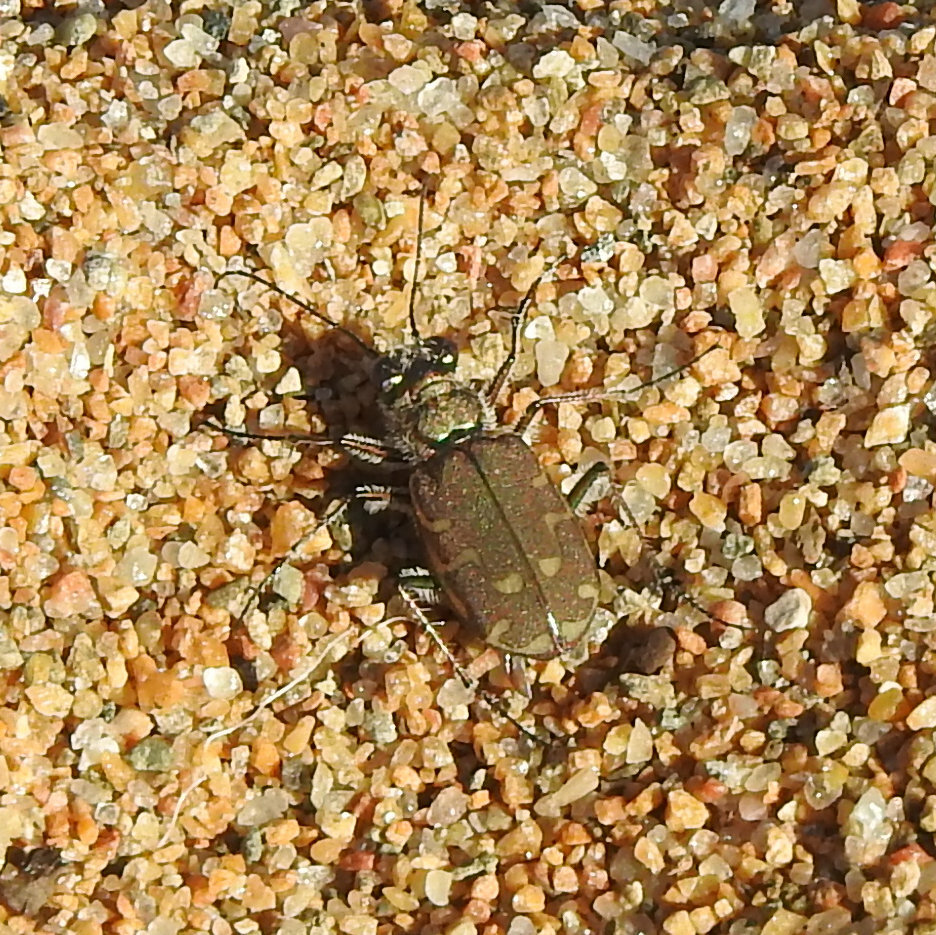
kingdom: Animalia
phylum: Arthropoda
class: Insecta
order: Coleoptera
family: Carabidae
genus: Cicindela
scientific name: Cicindela repanda
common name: Bronzed tiger beetle
